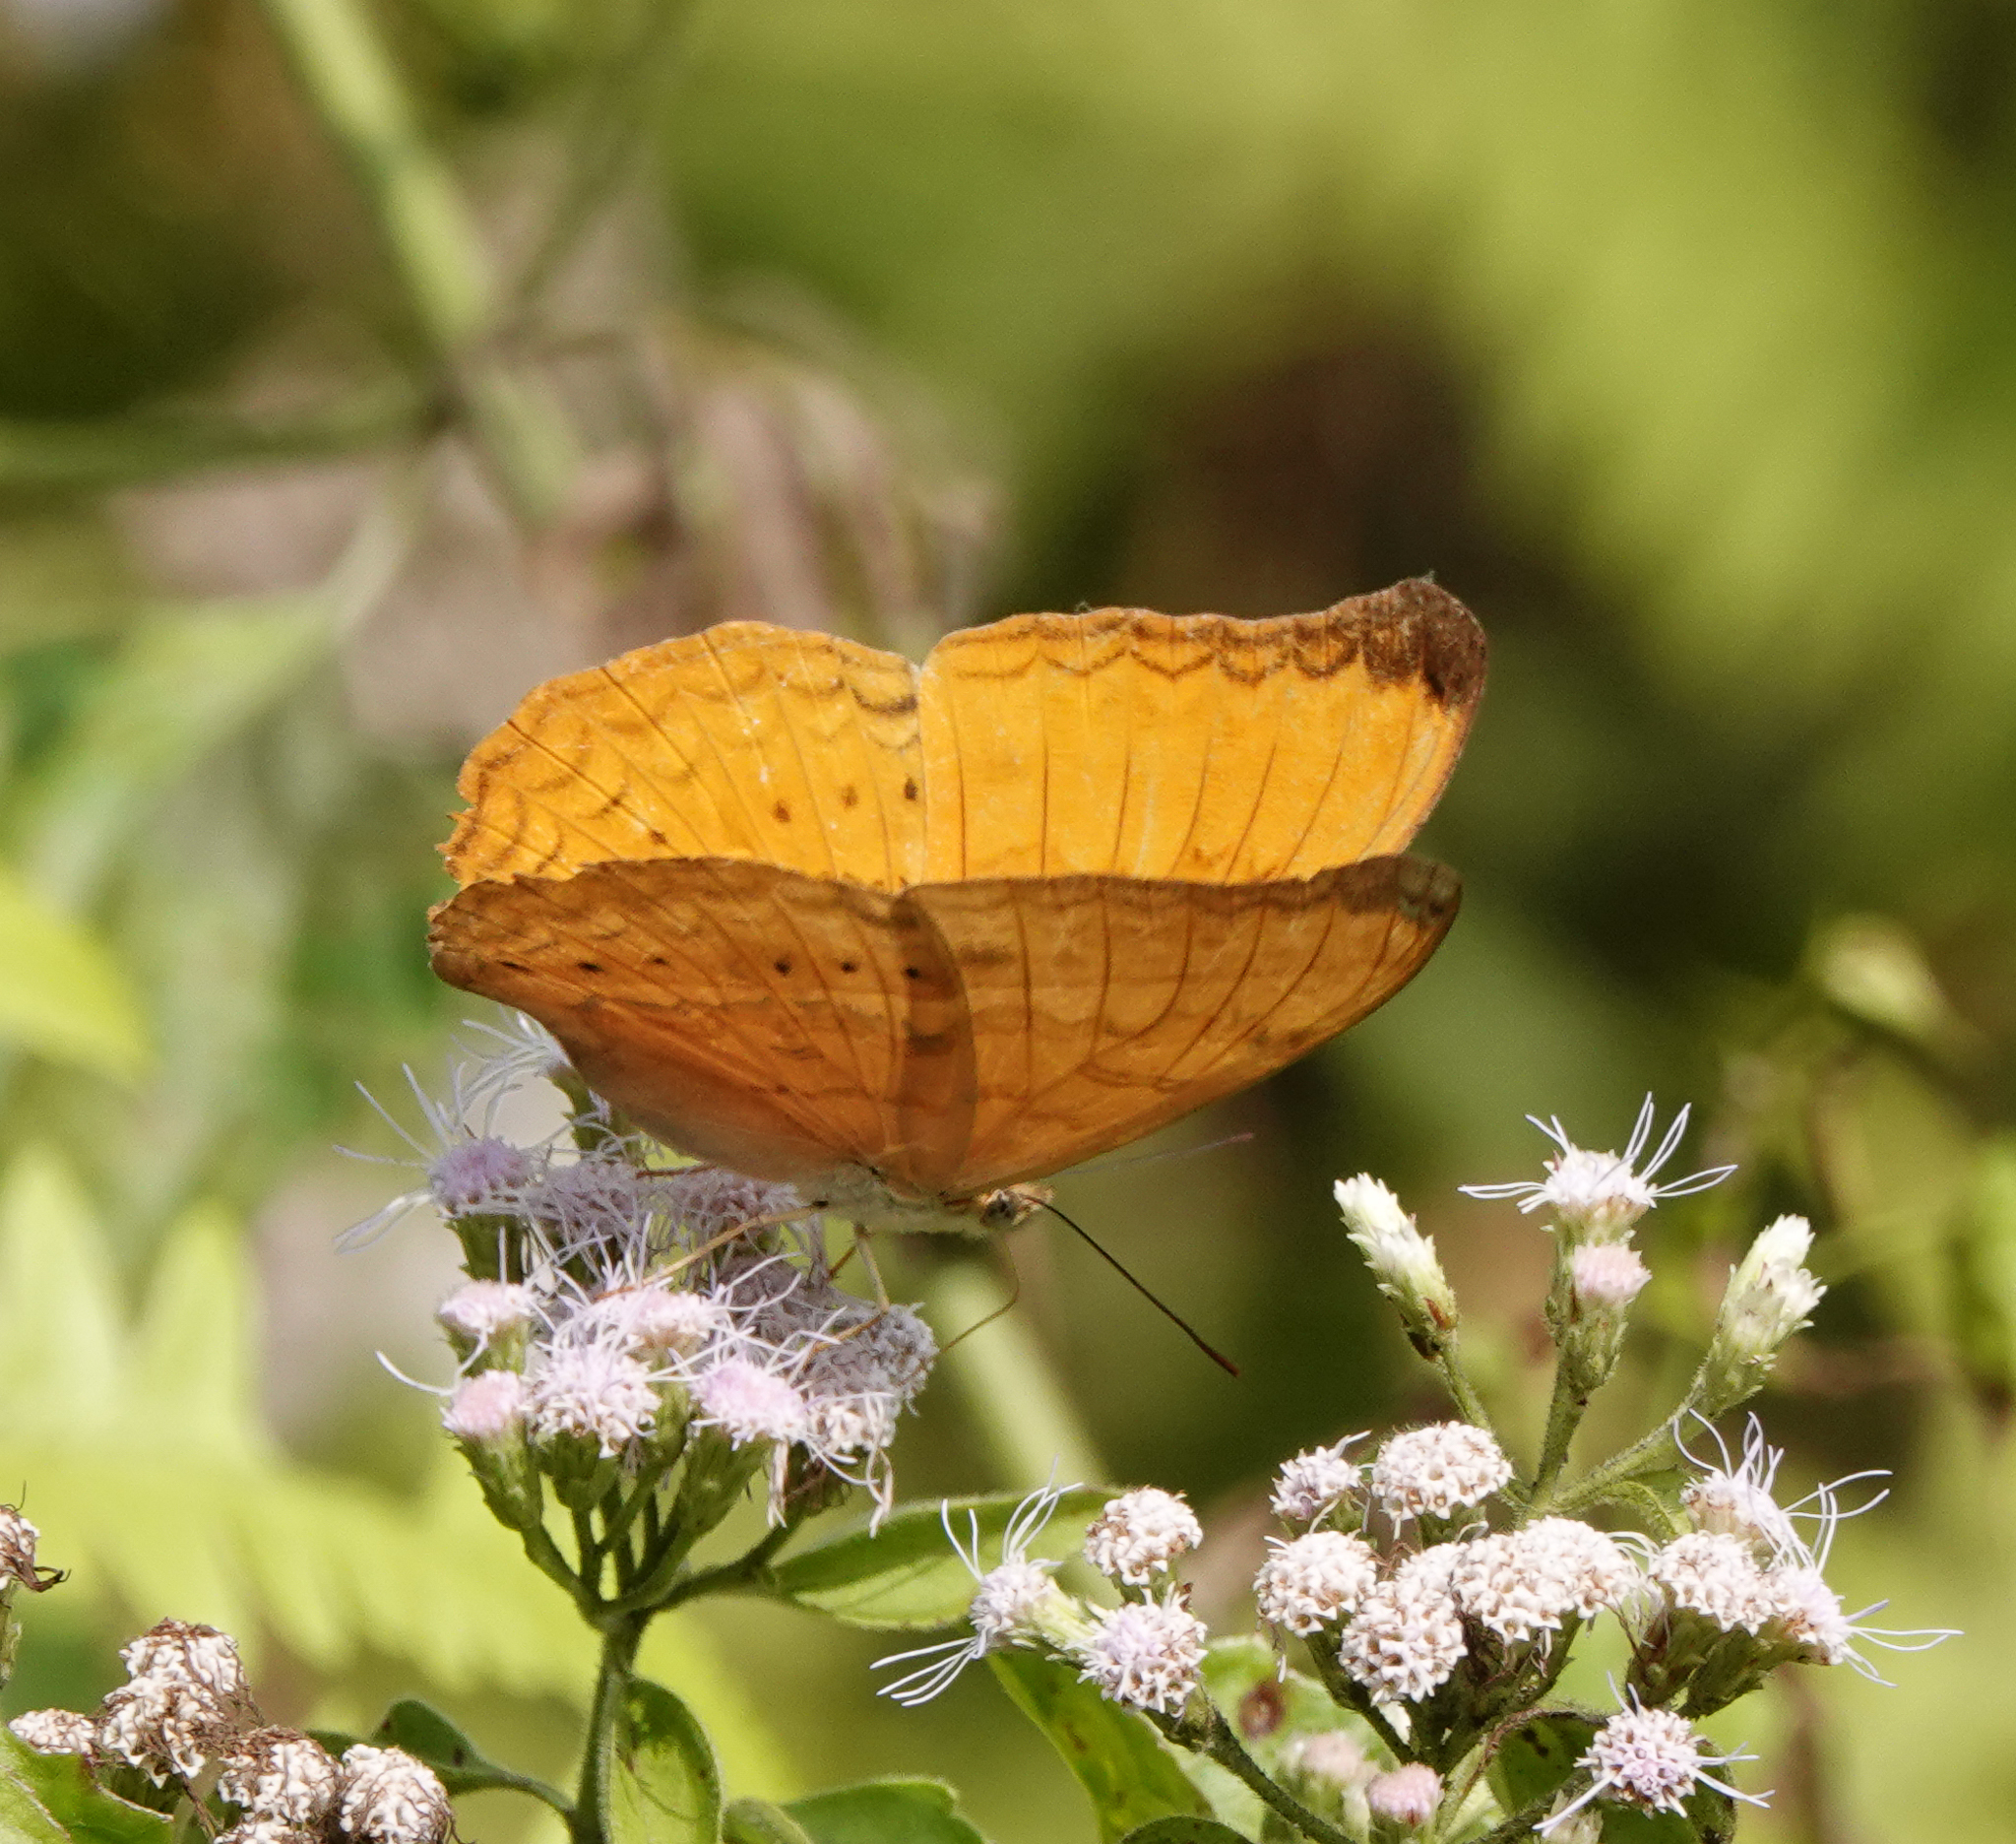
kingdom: Animalia
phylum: Arthropoda
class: Insecta
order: Lepidoptera
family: Nymphalidae
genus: Cirrochroa
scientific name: Cirrochroa aoris
